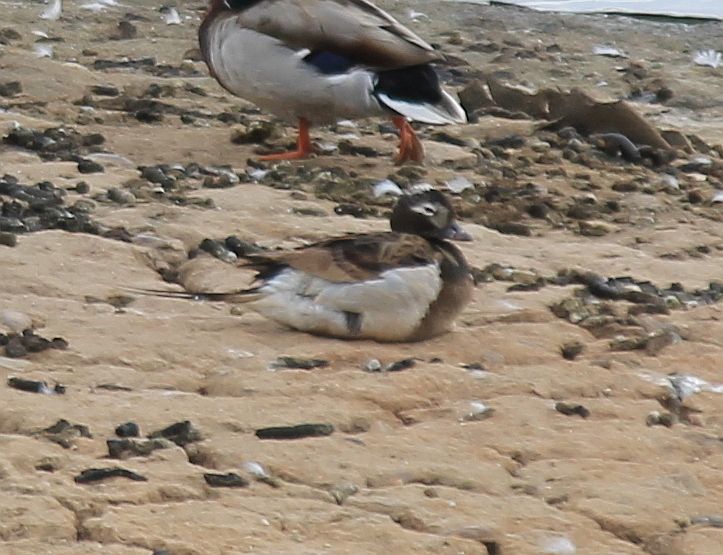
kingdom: Animalia
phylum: Chordata
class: Aves
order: Anseriformes
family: Anatidae
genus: Clangula
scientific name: Clangula hyemalis
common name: Long-tailed duck
